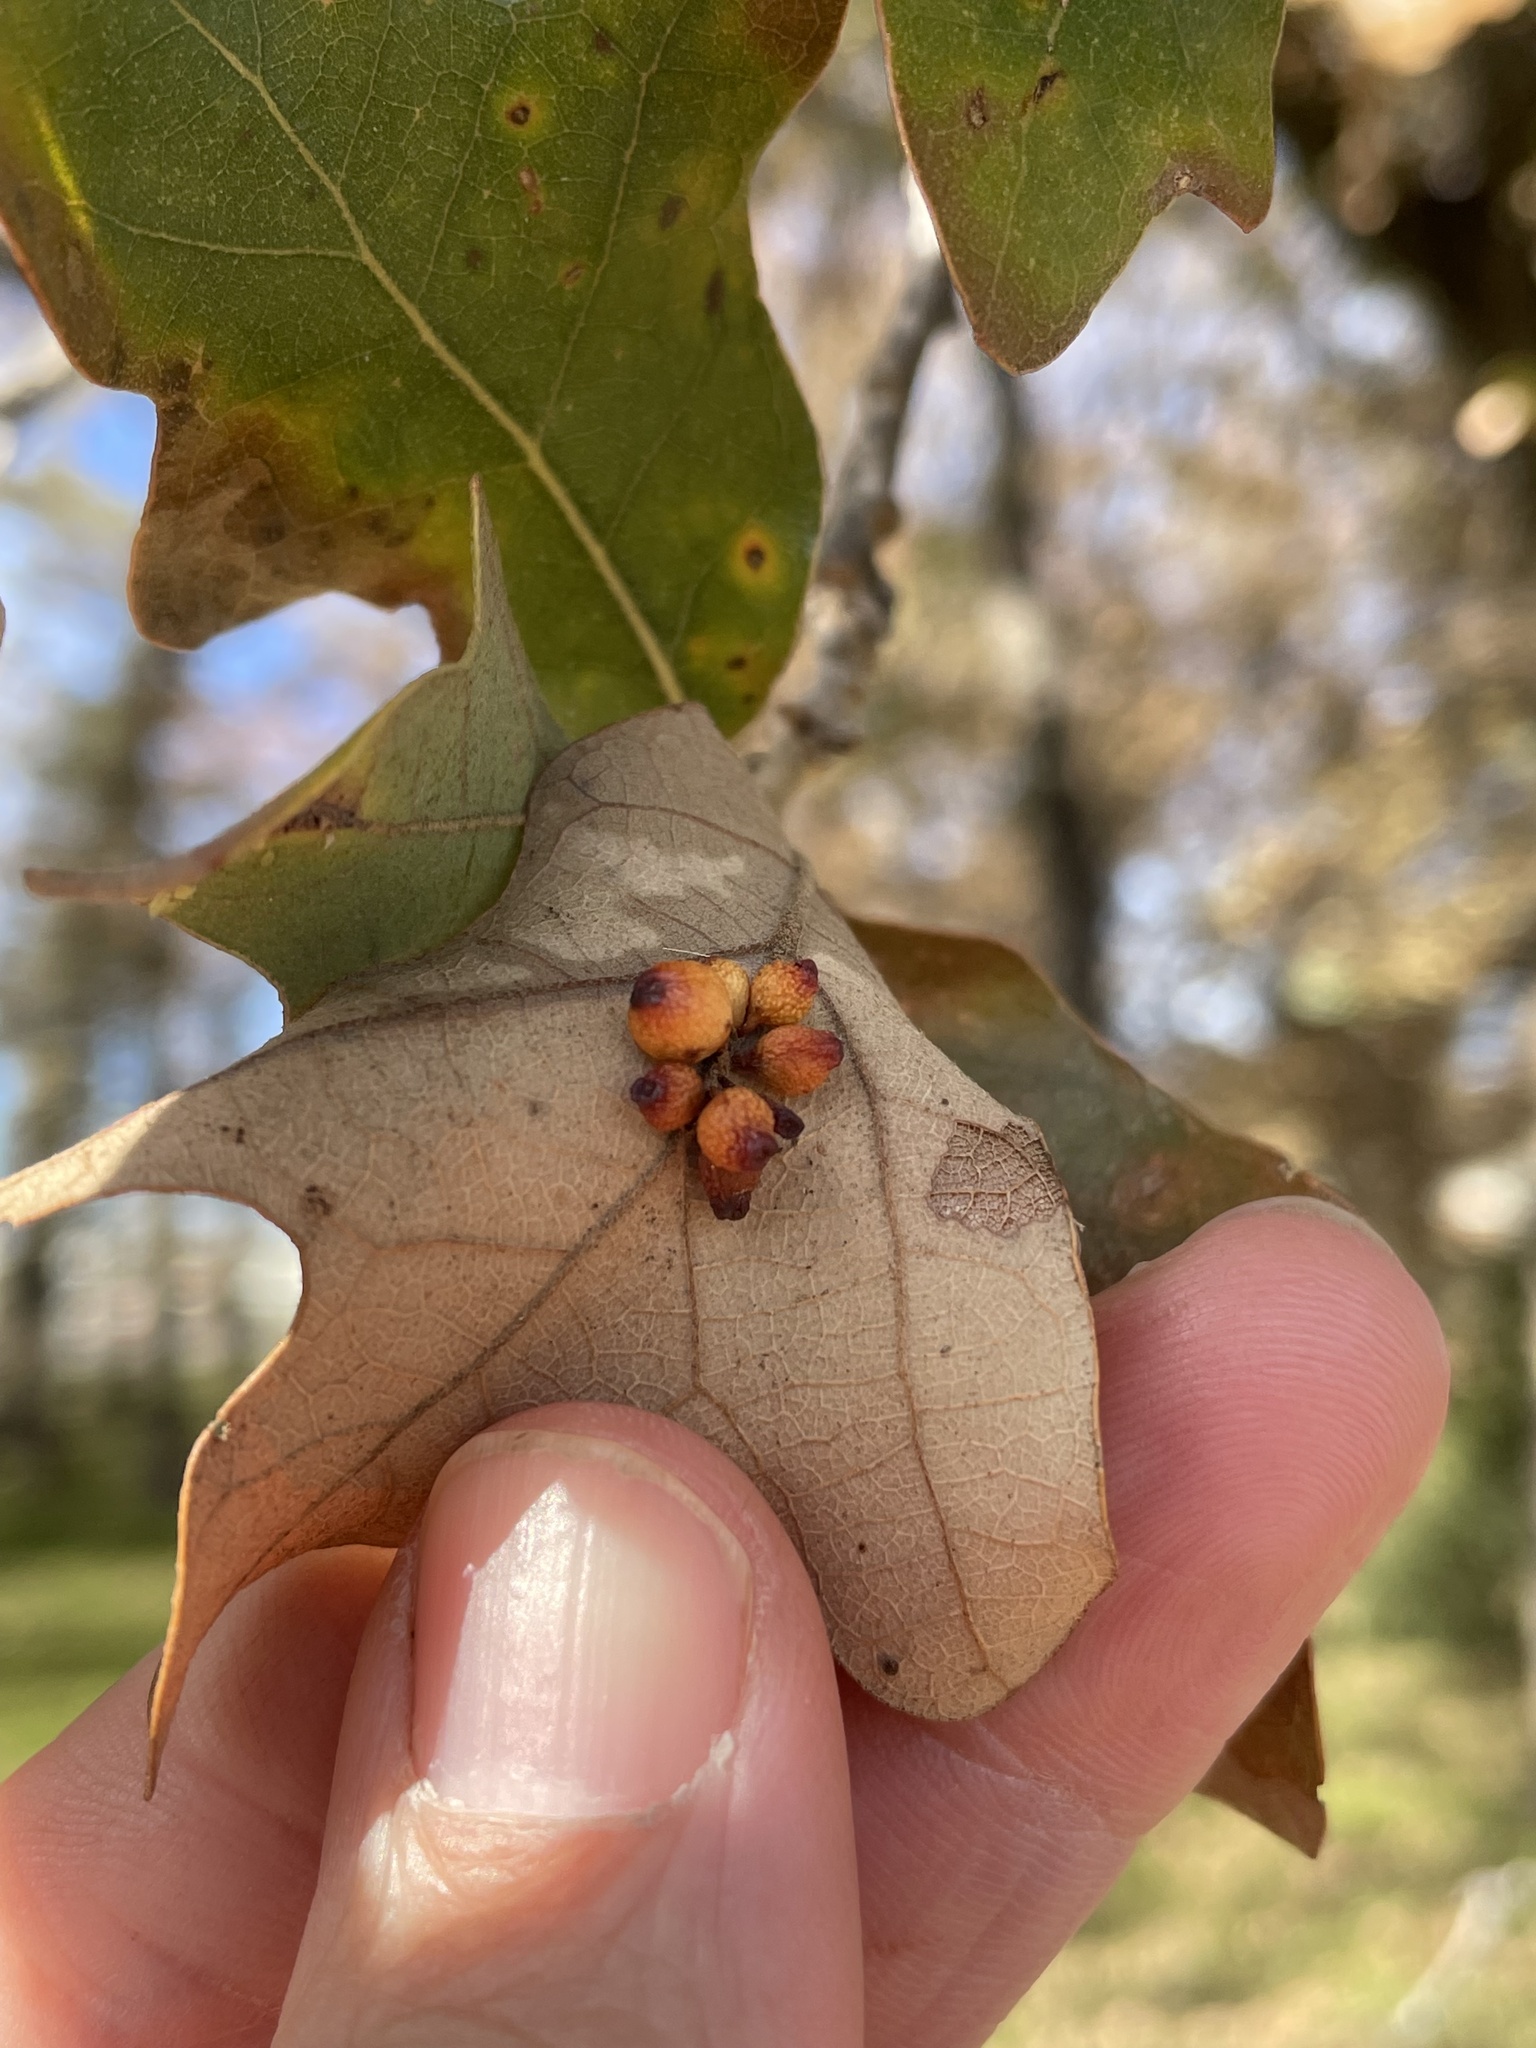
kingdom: Animalia
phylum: Arthropoda
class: Insecta
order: Hymenoptera
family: Cynipidae
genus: Andricus
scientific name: Andricus lustrans
